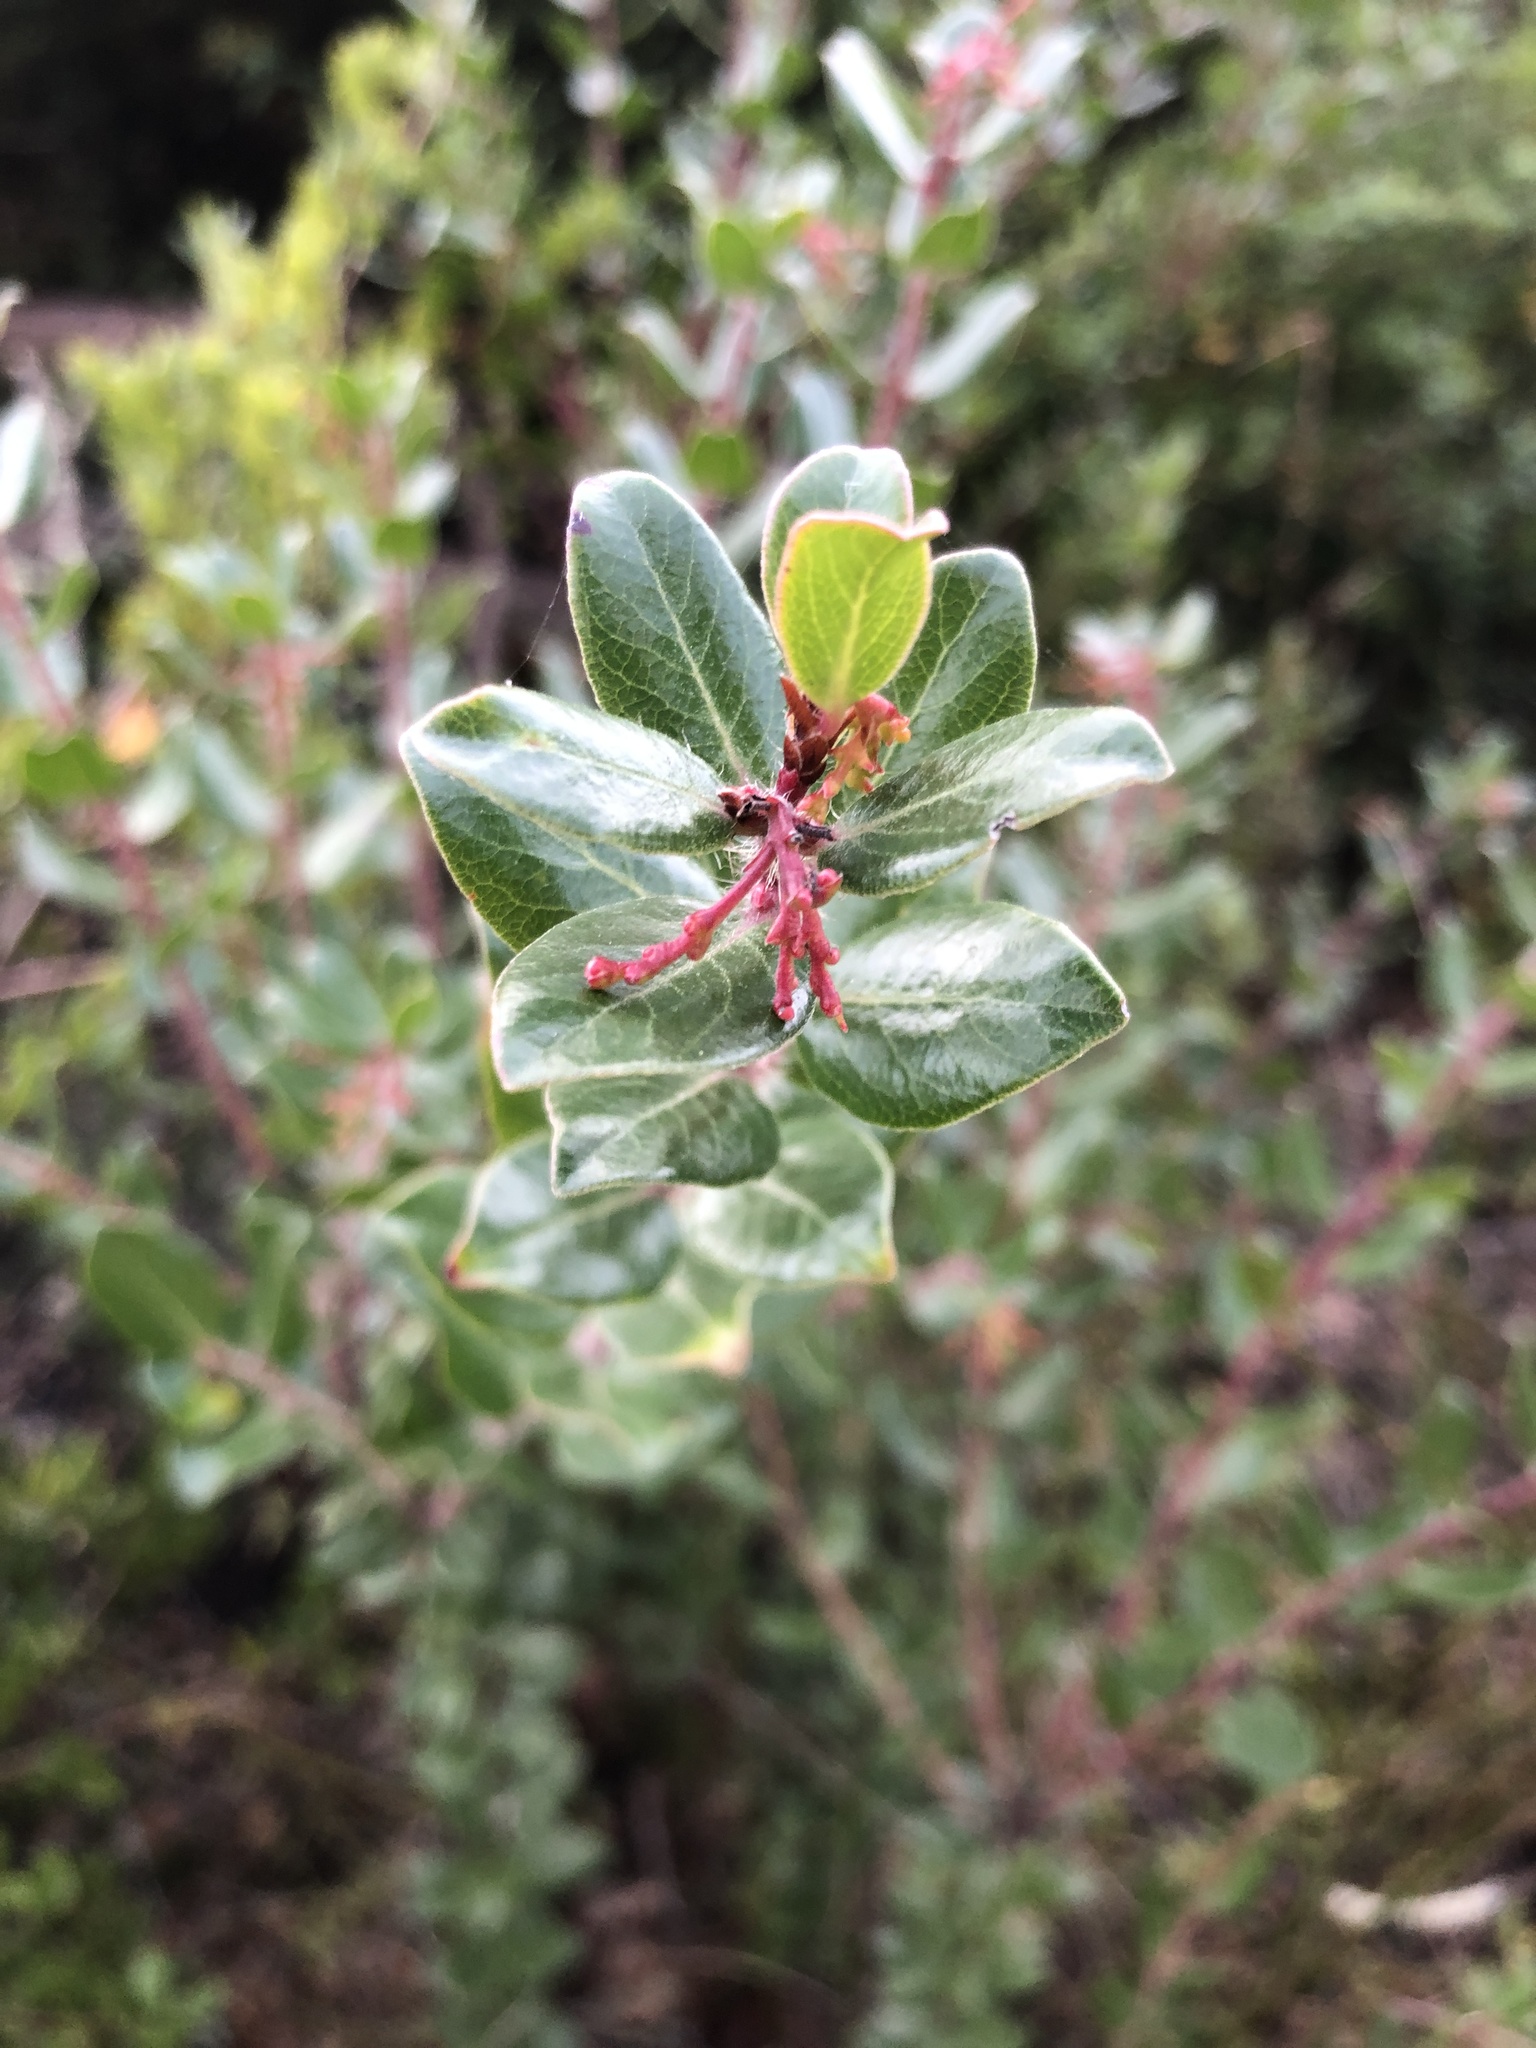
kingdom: Plantae
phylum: Tracheophyta
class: Magnoliopsida
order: Ericales
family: Ericaceae
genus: Arctostaphylos
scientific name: Arctostaphylos nummularia
